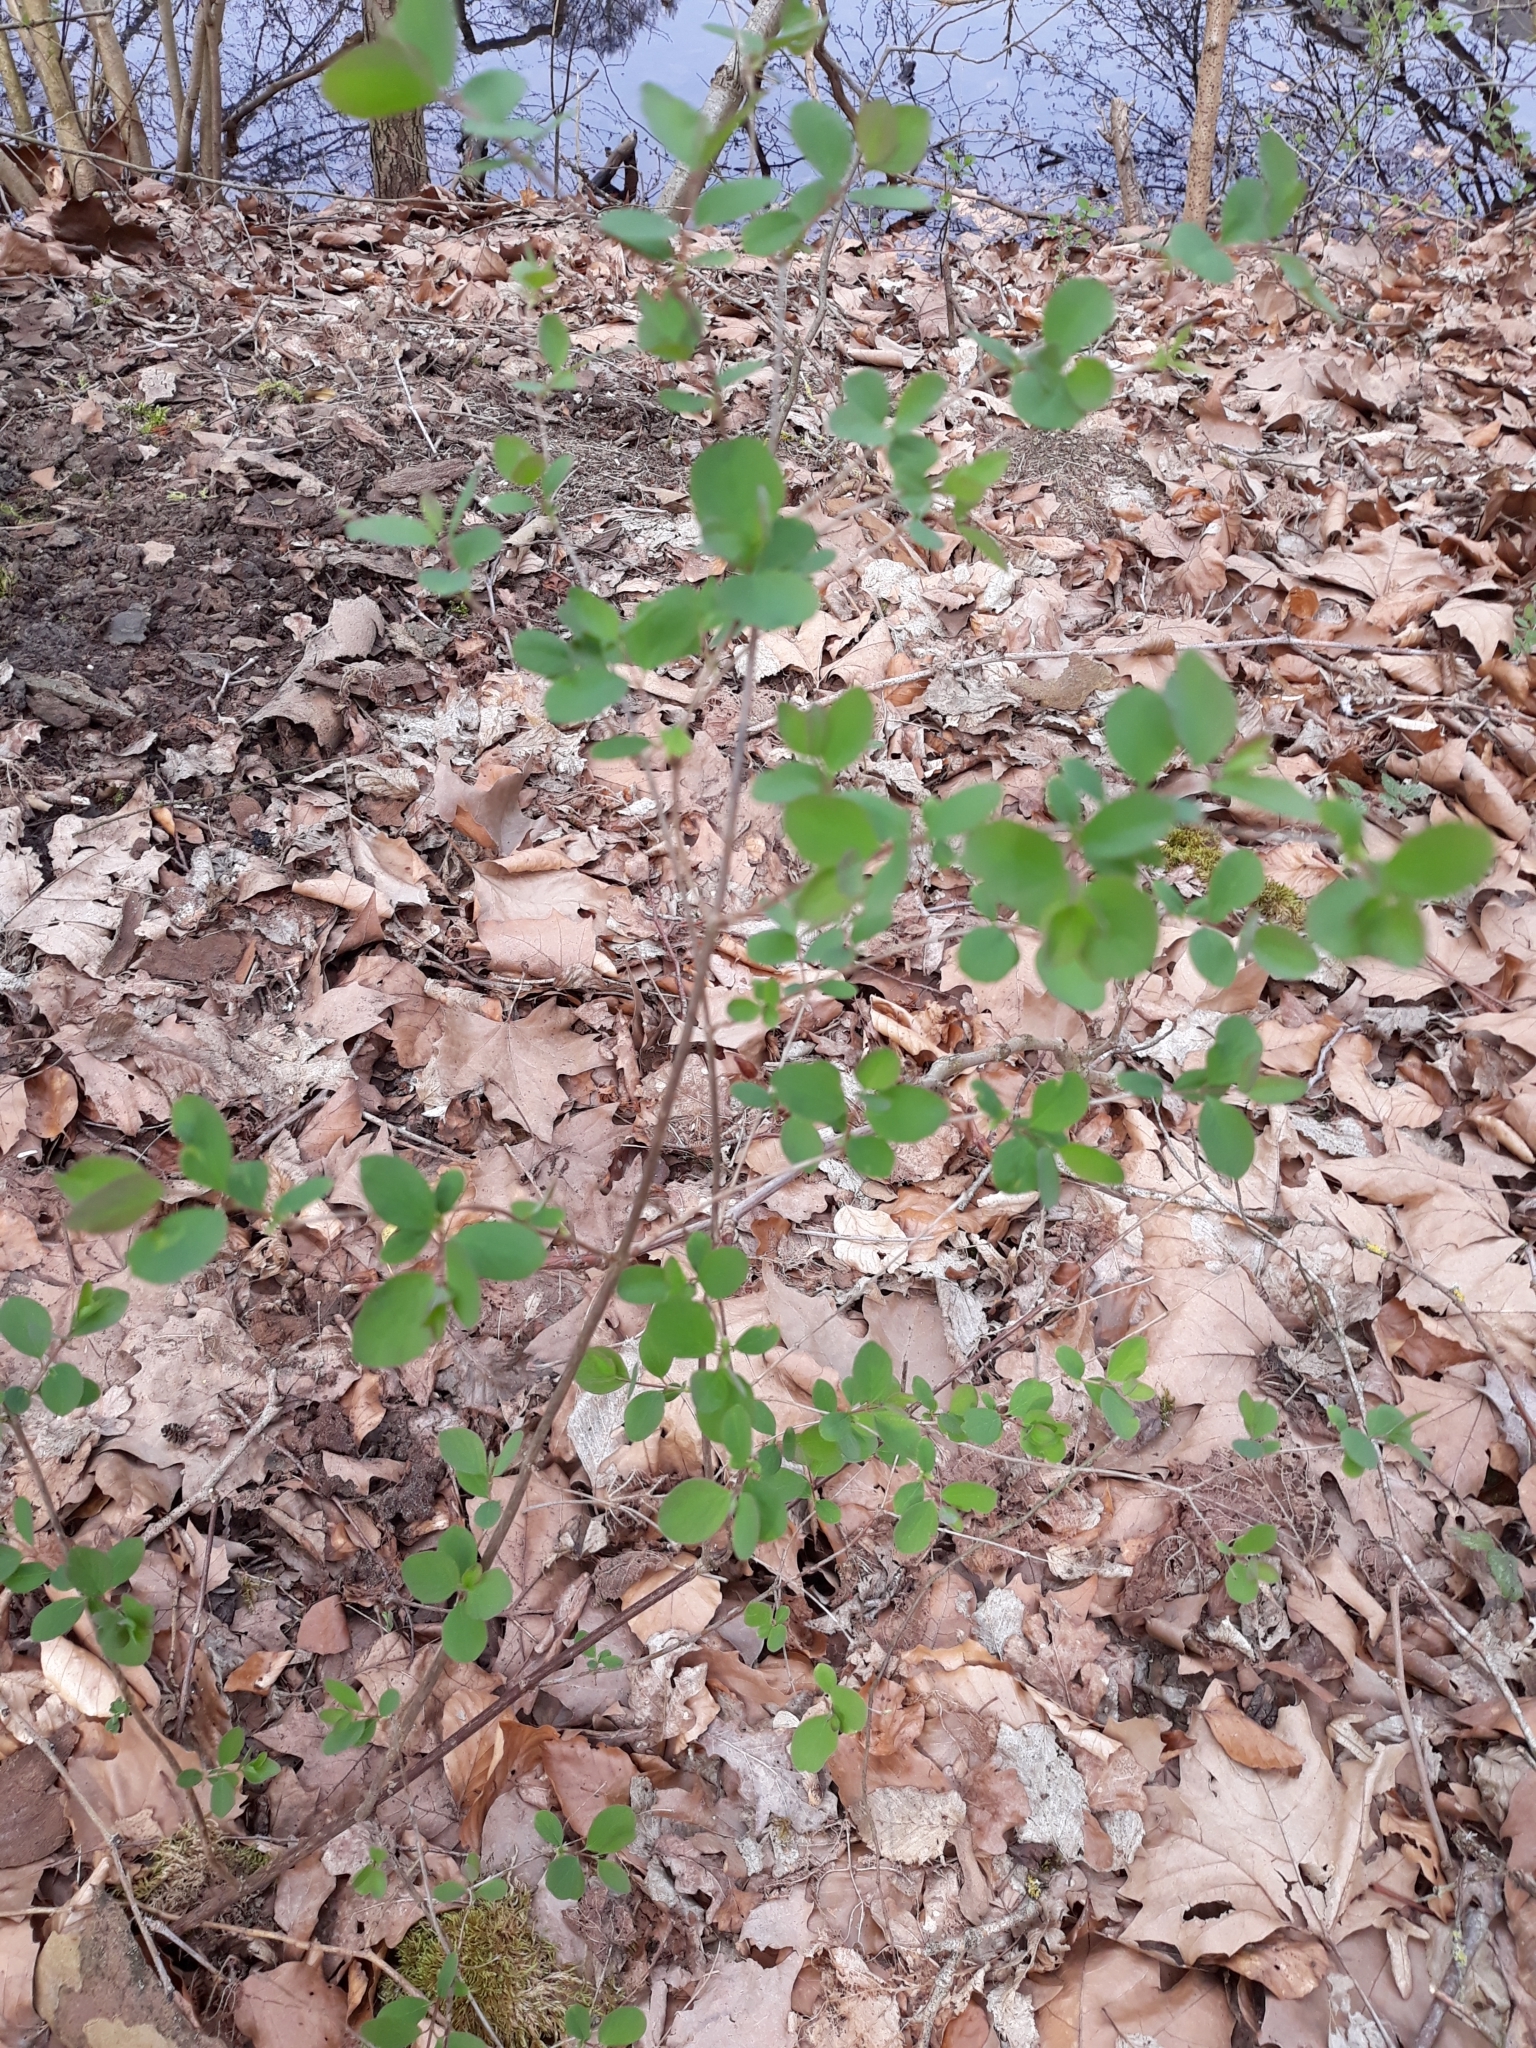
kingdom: Plantae
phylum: Tracheophyta
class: Magnoliopsida
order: Dipsacales
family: Caprifoliaceae
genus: Symphoricarpos
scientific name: Symphoricarpos albus
